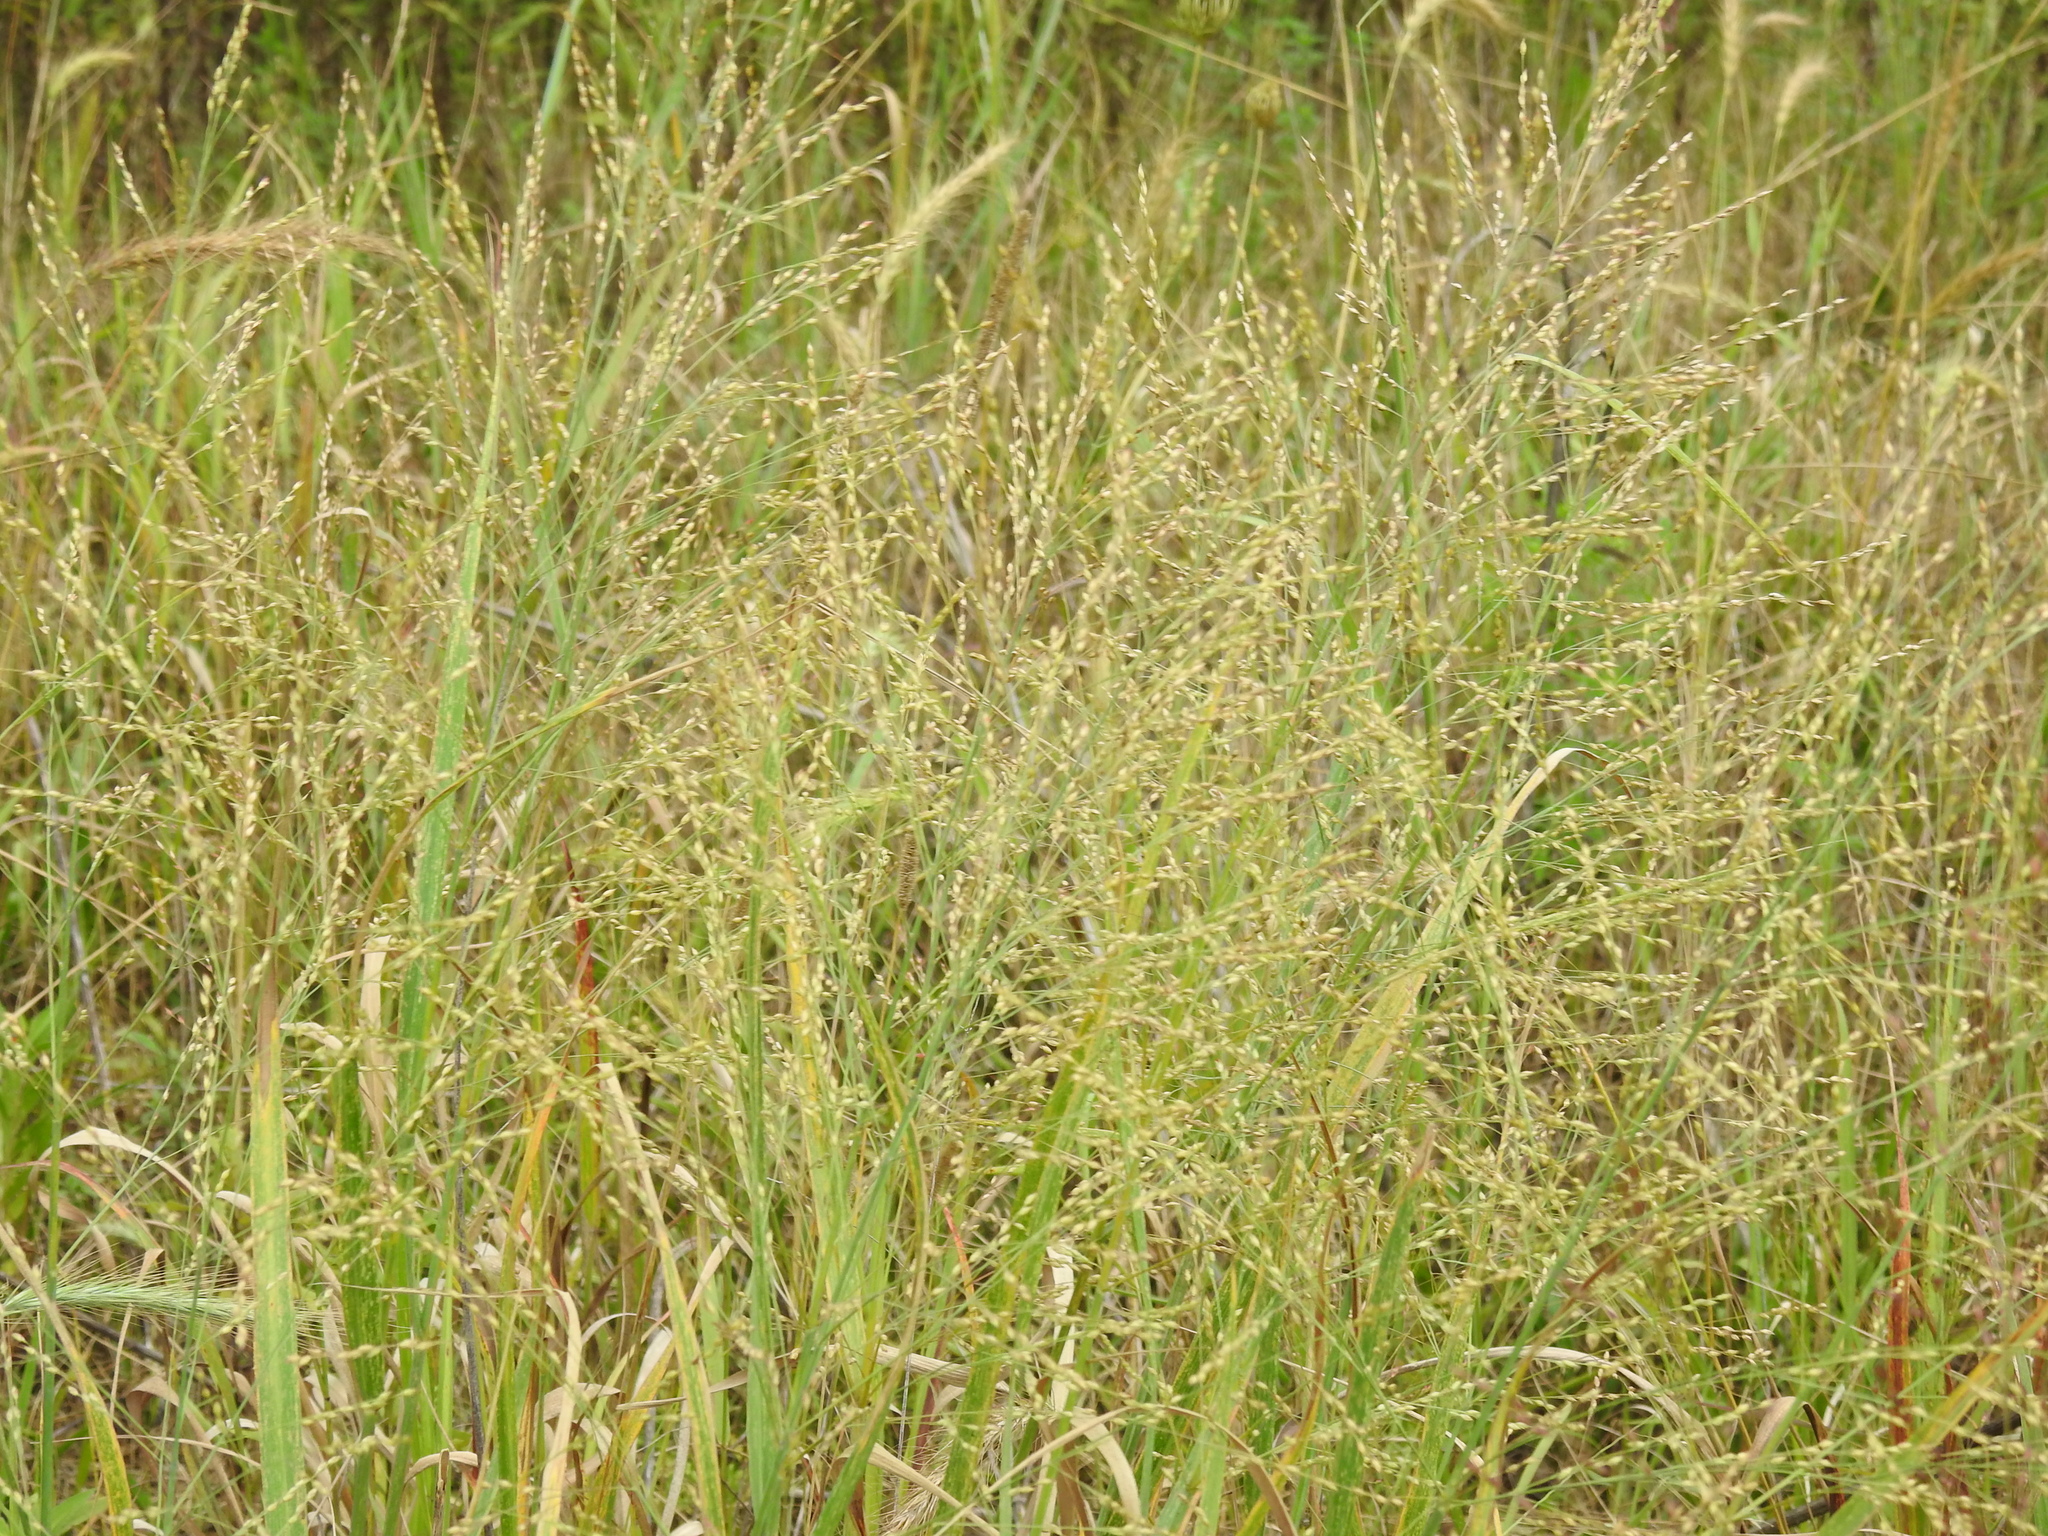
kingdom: Plantae
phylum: Tracheophyta
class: Liliopsida
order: Poales
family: Poaceae
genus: Panicum
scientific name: Panicum virgatum
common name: Switchgrass
